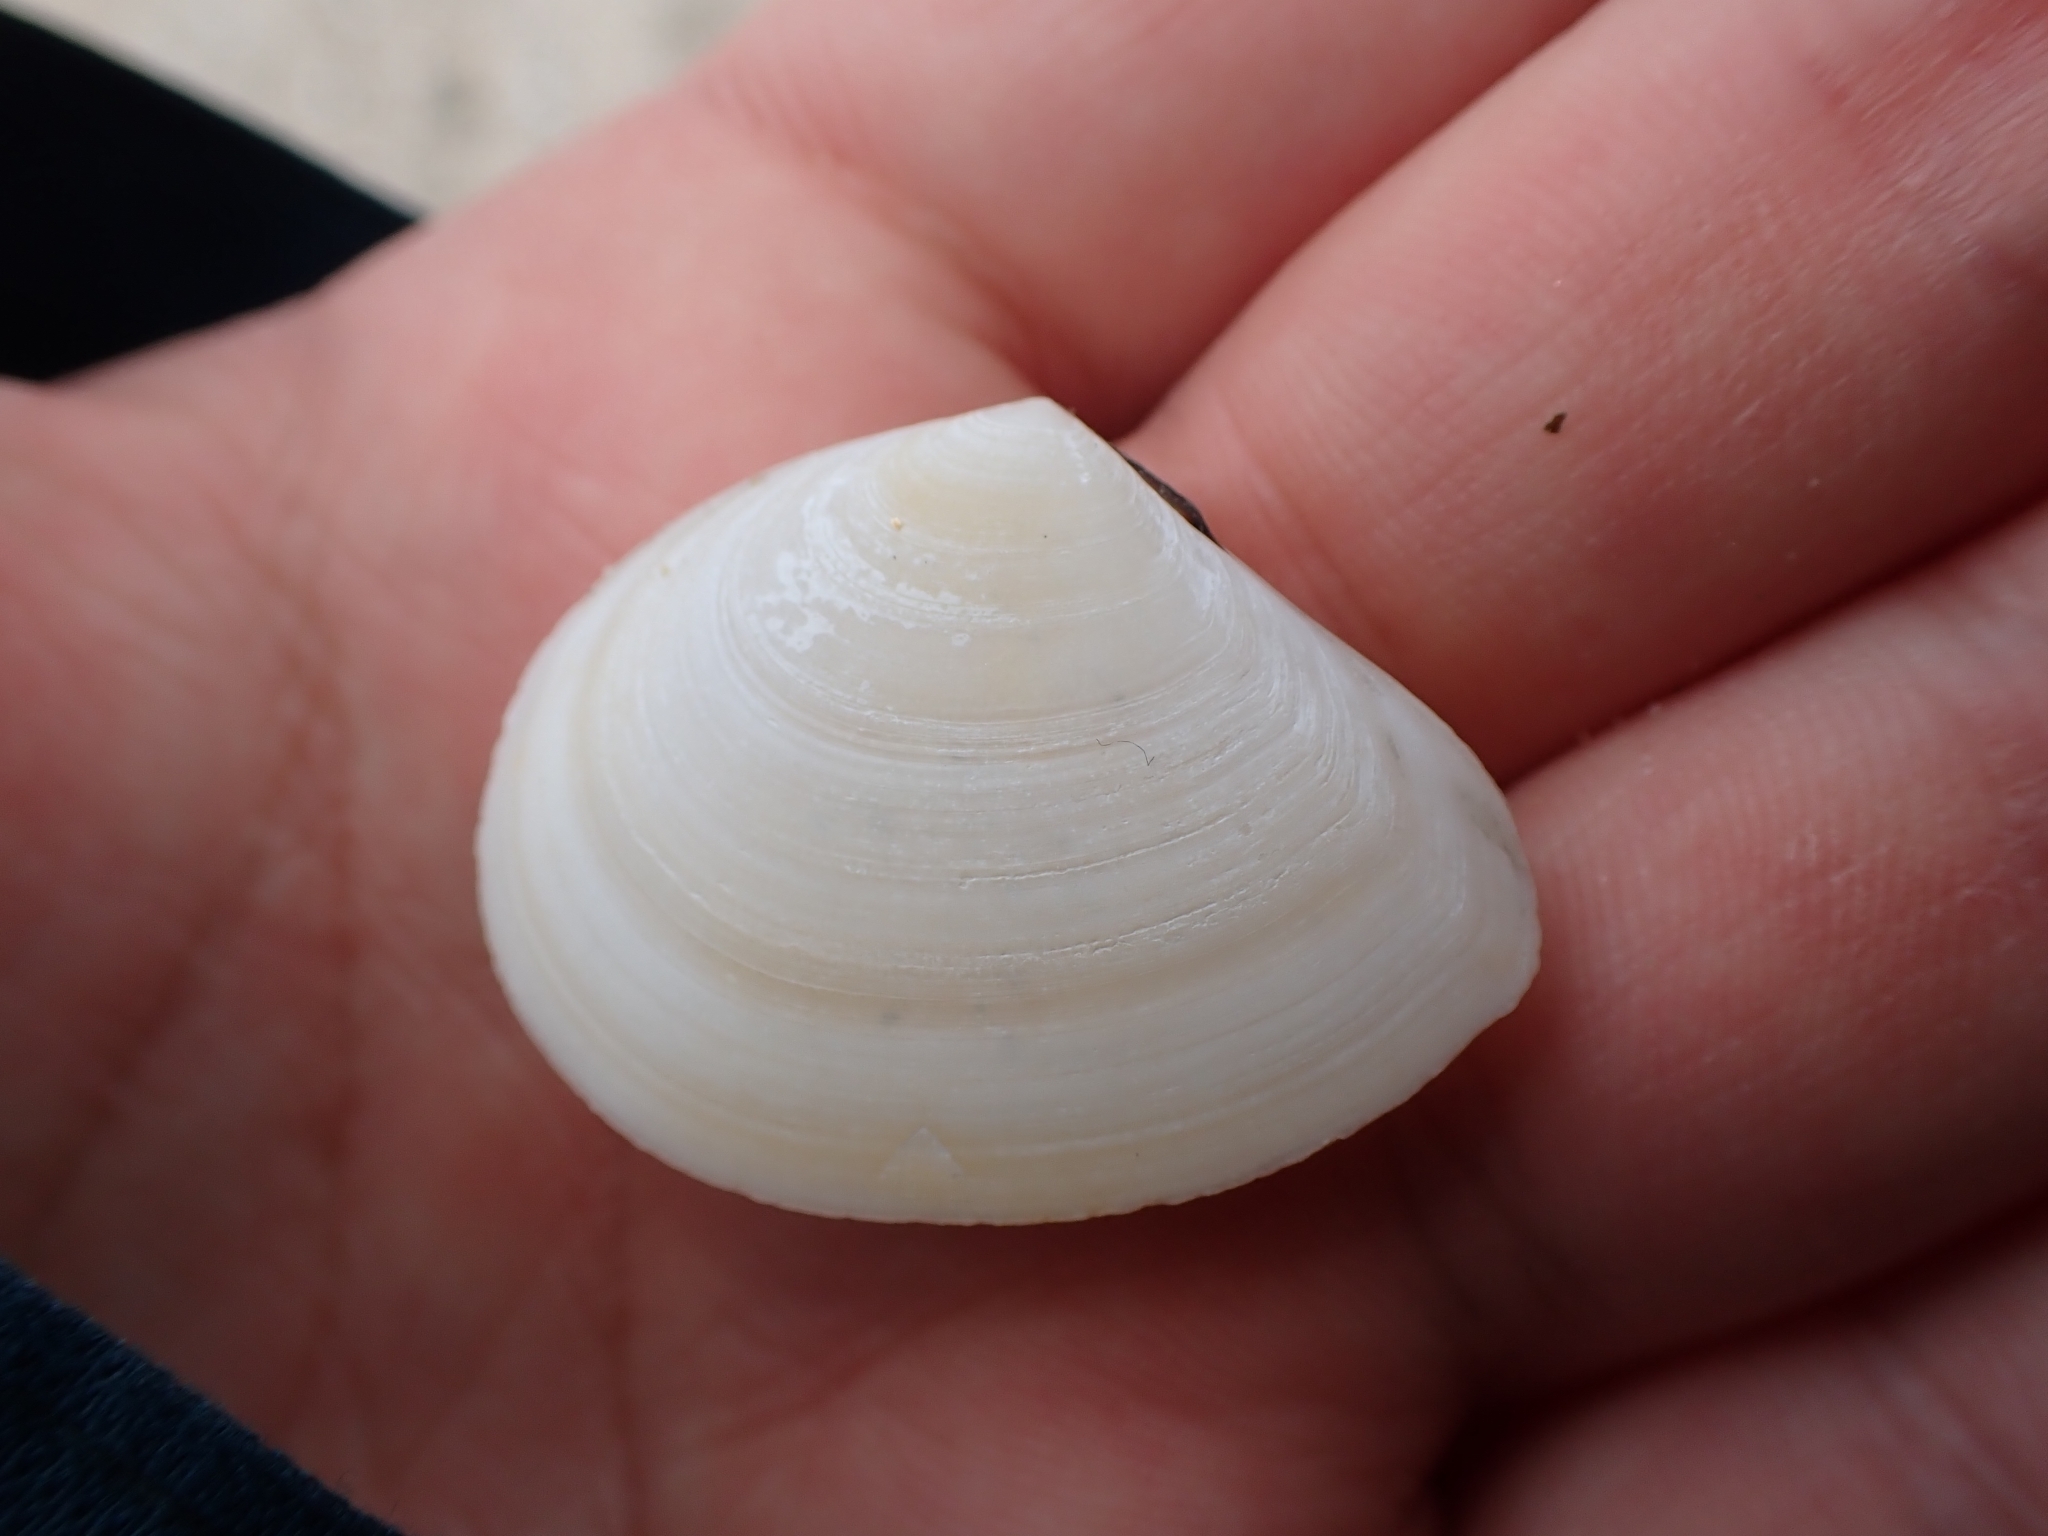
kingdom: Animalia
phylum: Mollusca
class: Bivalvia
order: Cardiida
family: Tellinidae
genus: Macomona
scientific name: Macomona liliana
